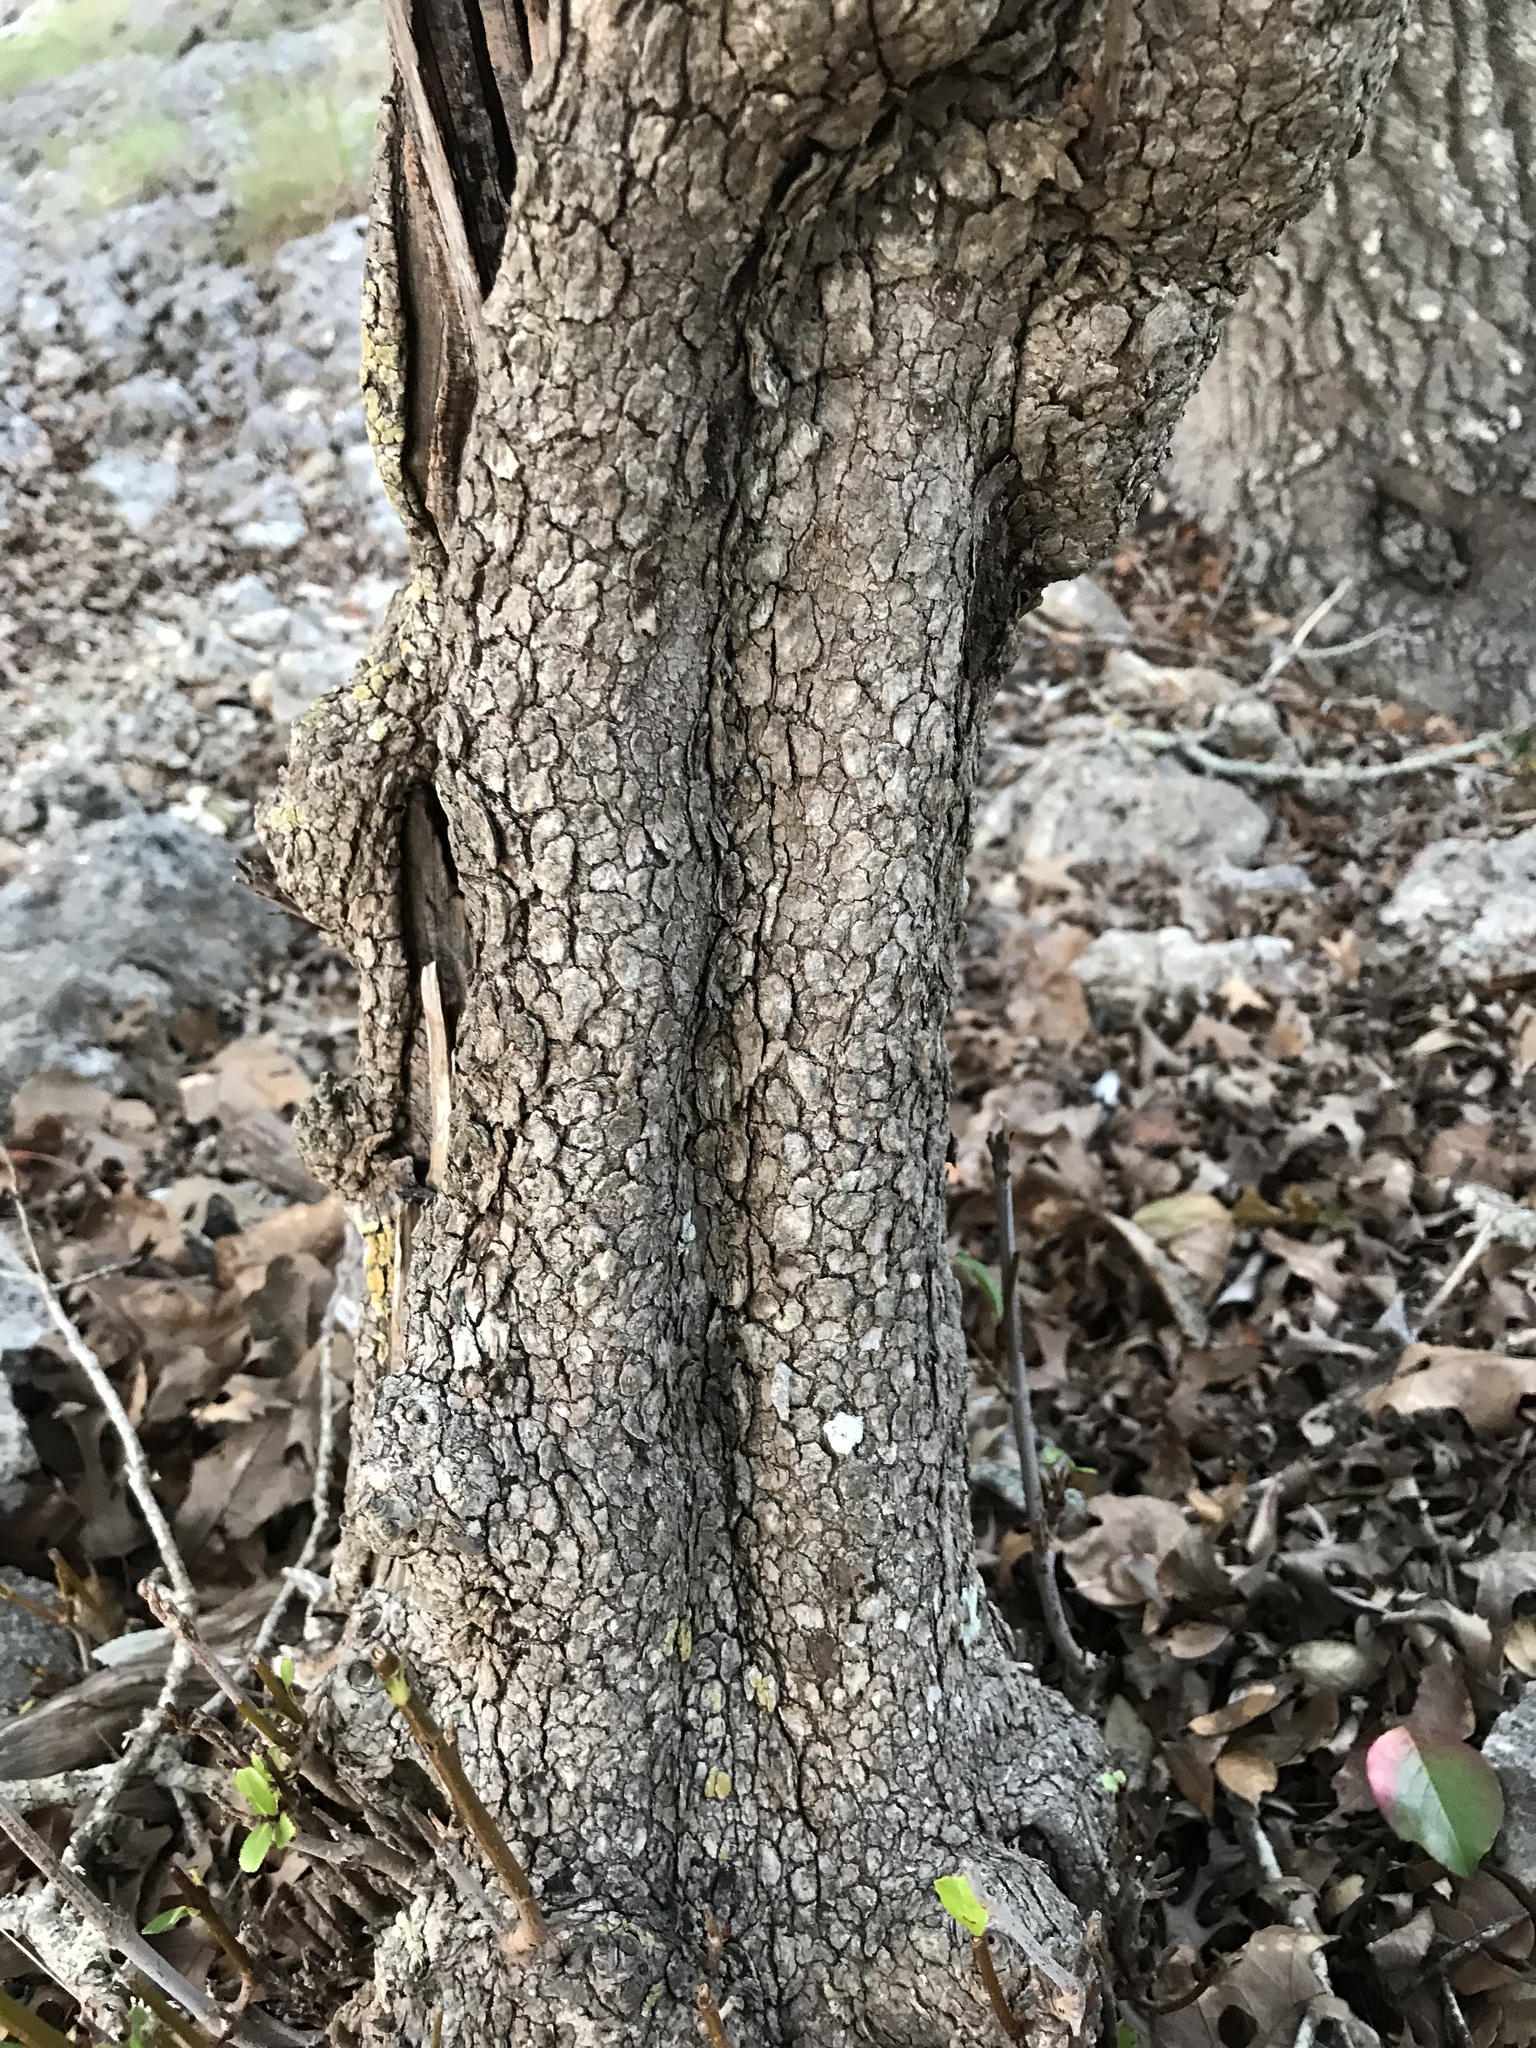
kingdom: Plantae
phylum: Tracheophyta
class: Magnoliopsida
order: Dipsacales
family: Viburnaceae
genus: Viburnum
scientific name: Viburnum rufidulum
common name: Blue haw
